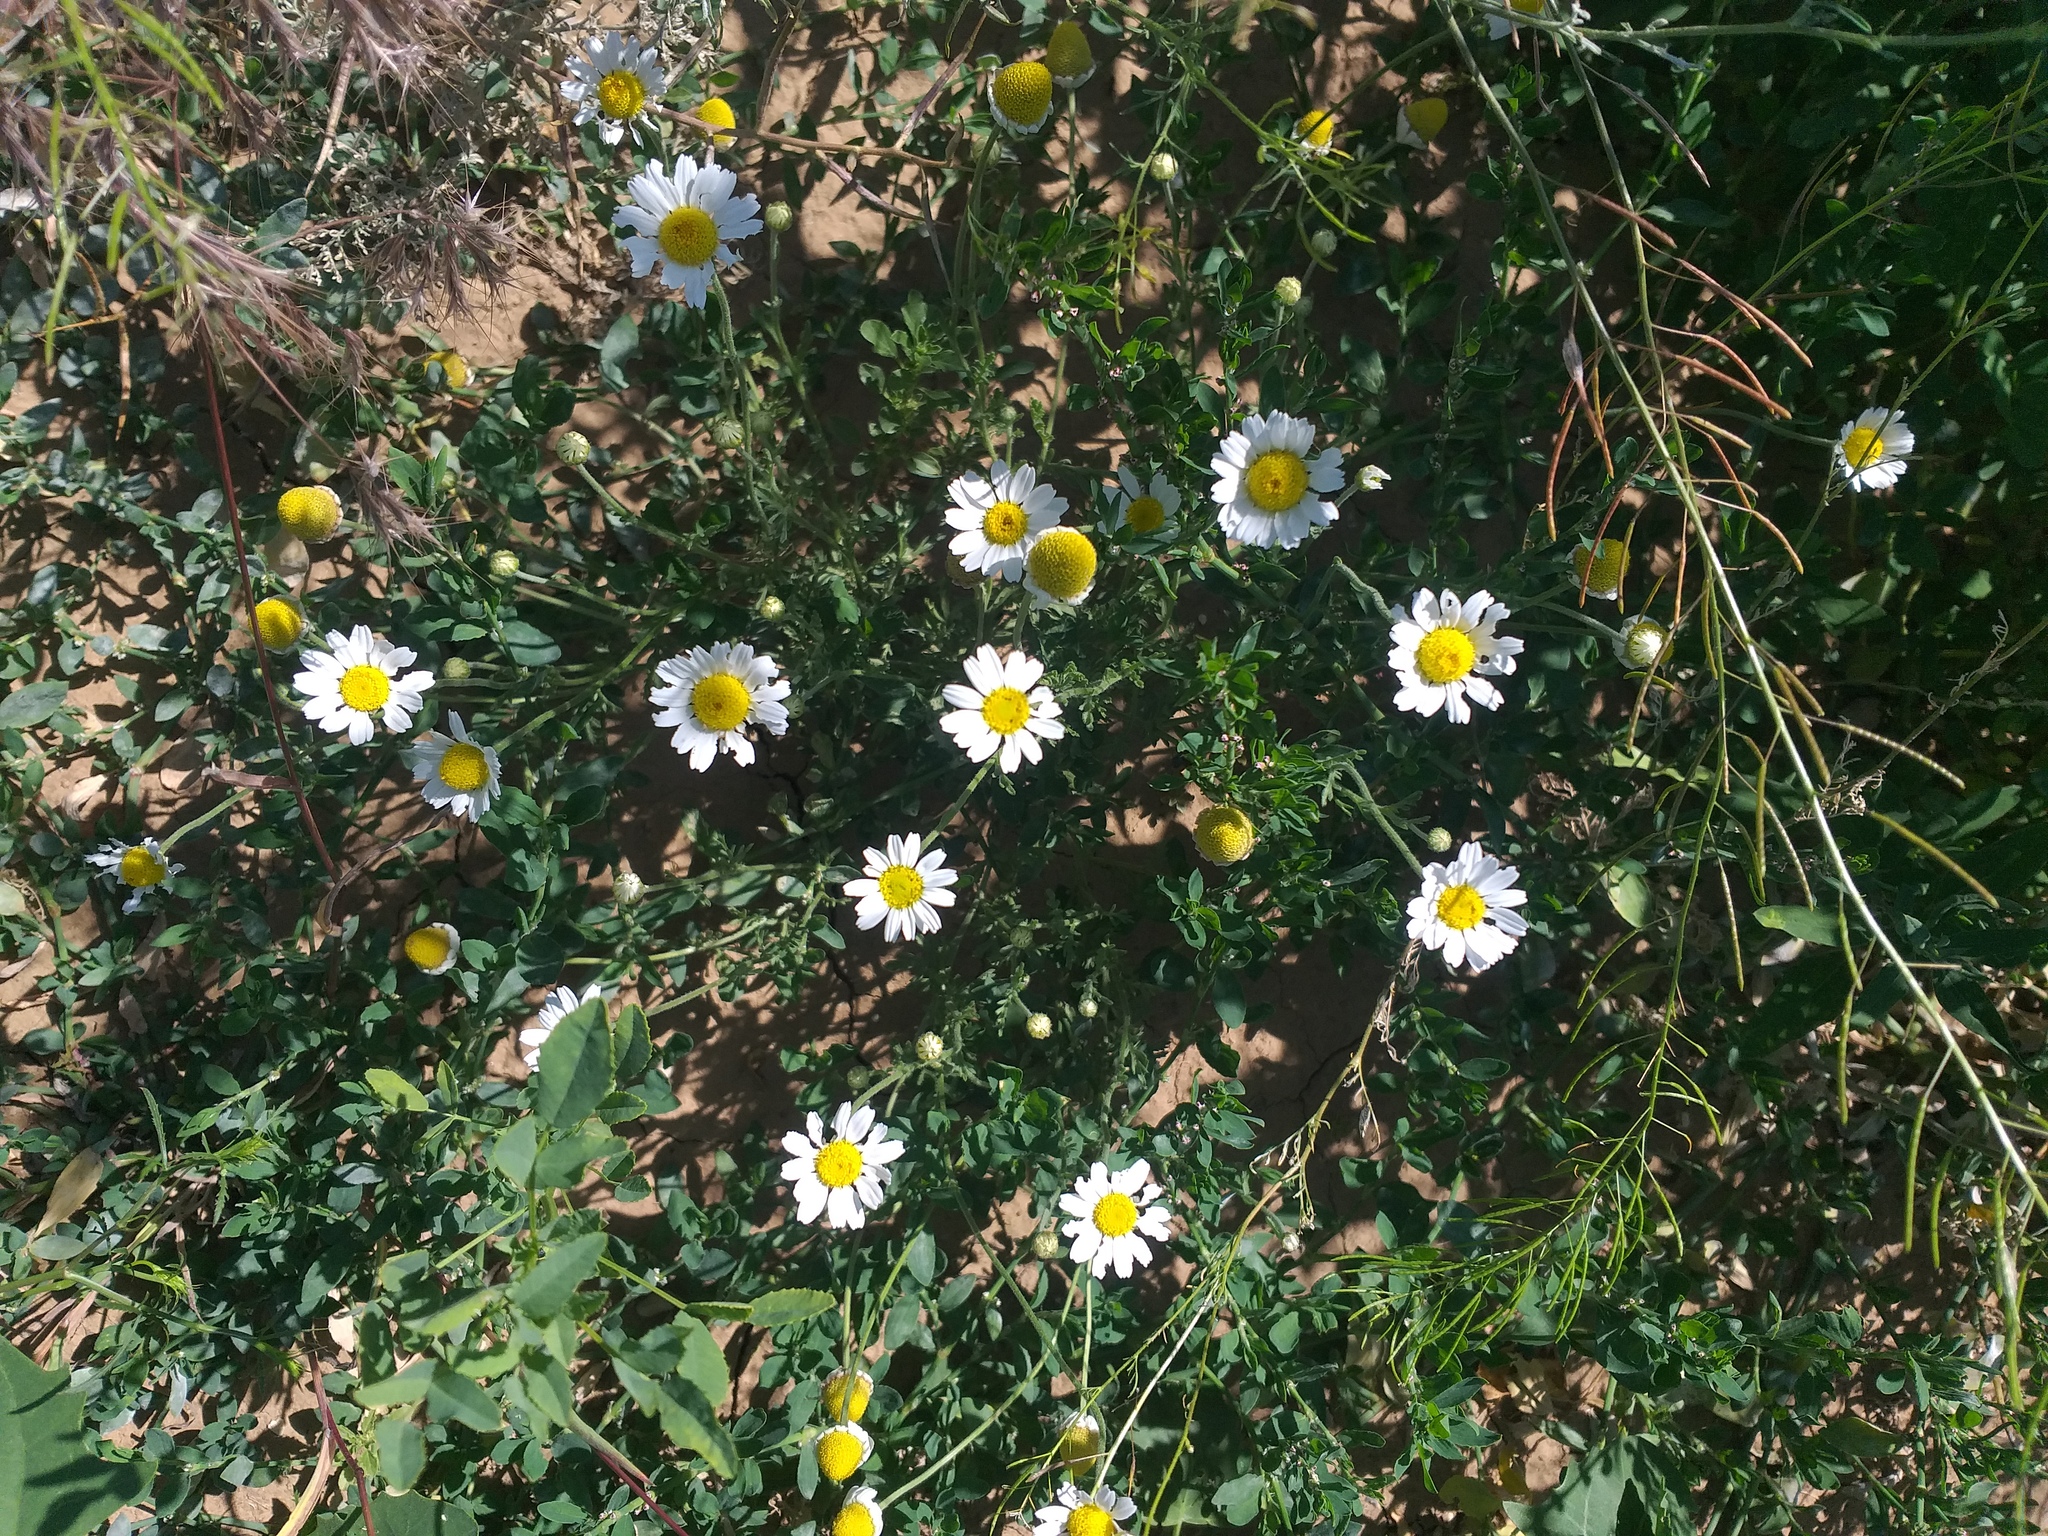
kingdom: Plantae
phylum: Tracheophyta
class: Magnoliopsida
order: Asterales
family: Asteraceae
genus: Anthemis
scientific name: Anthemis ruthenica
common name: Eastern chamomile
